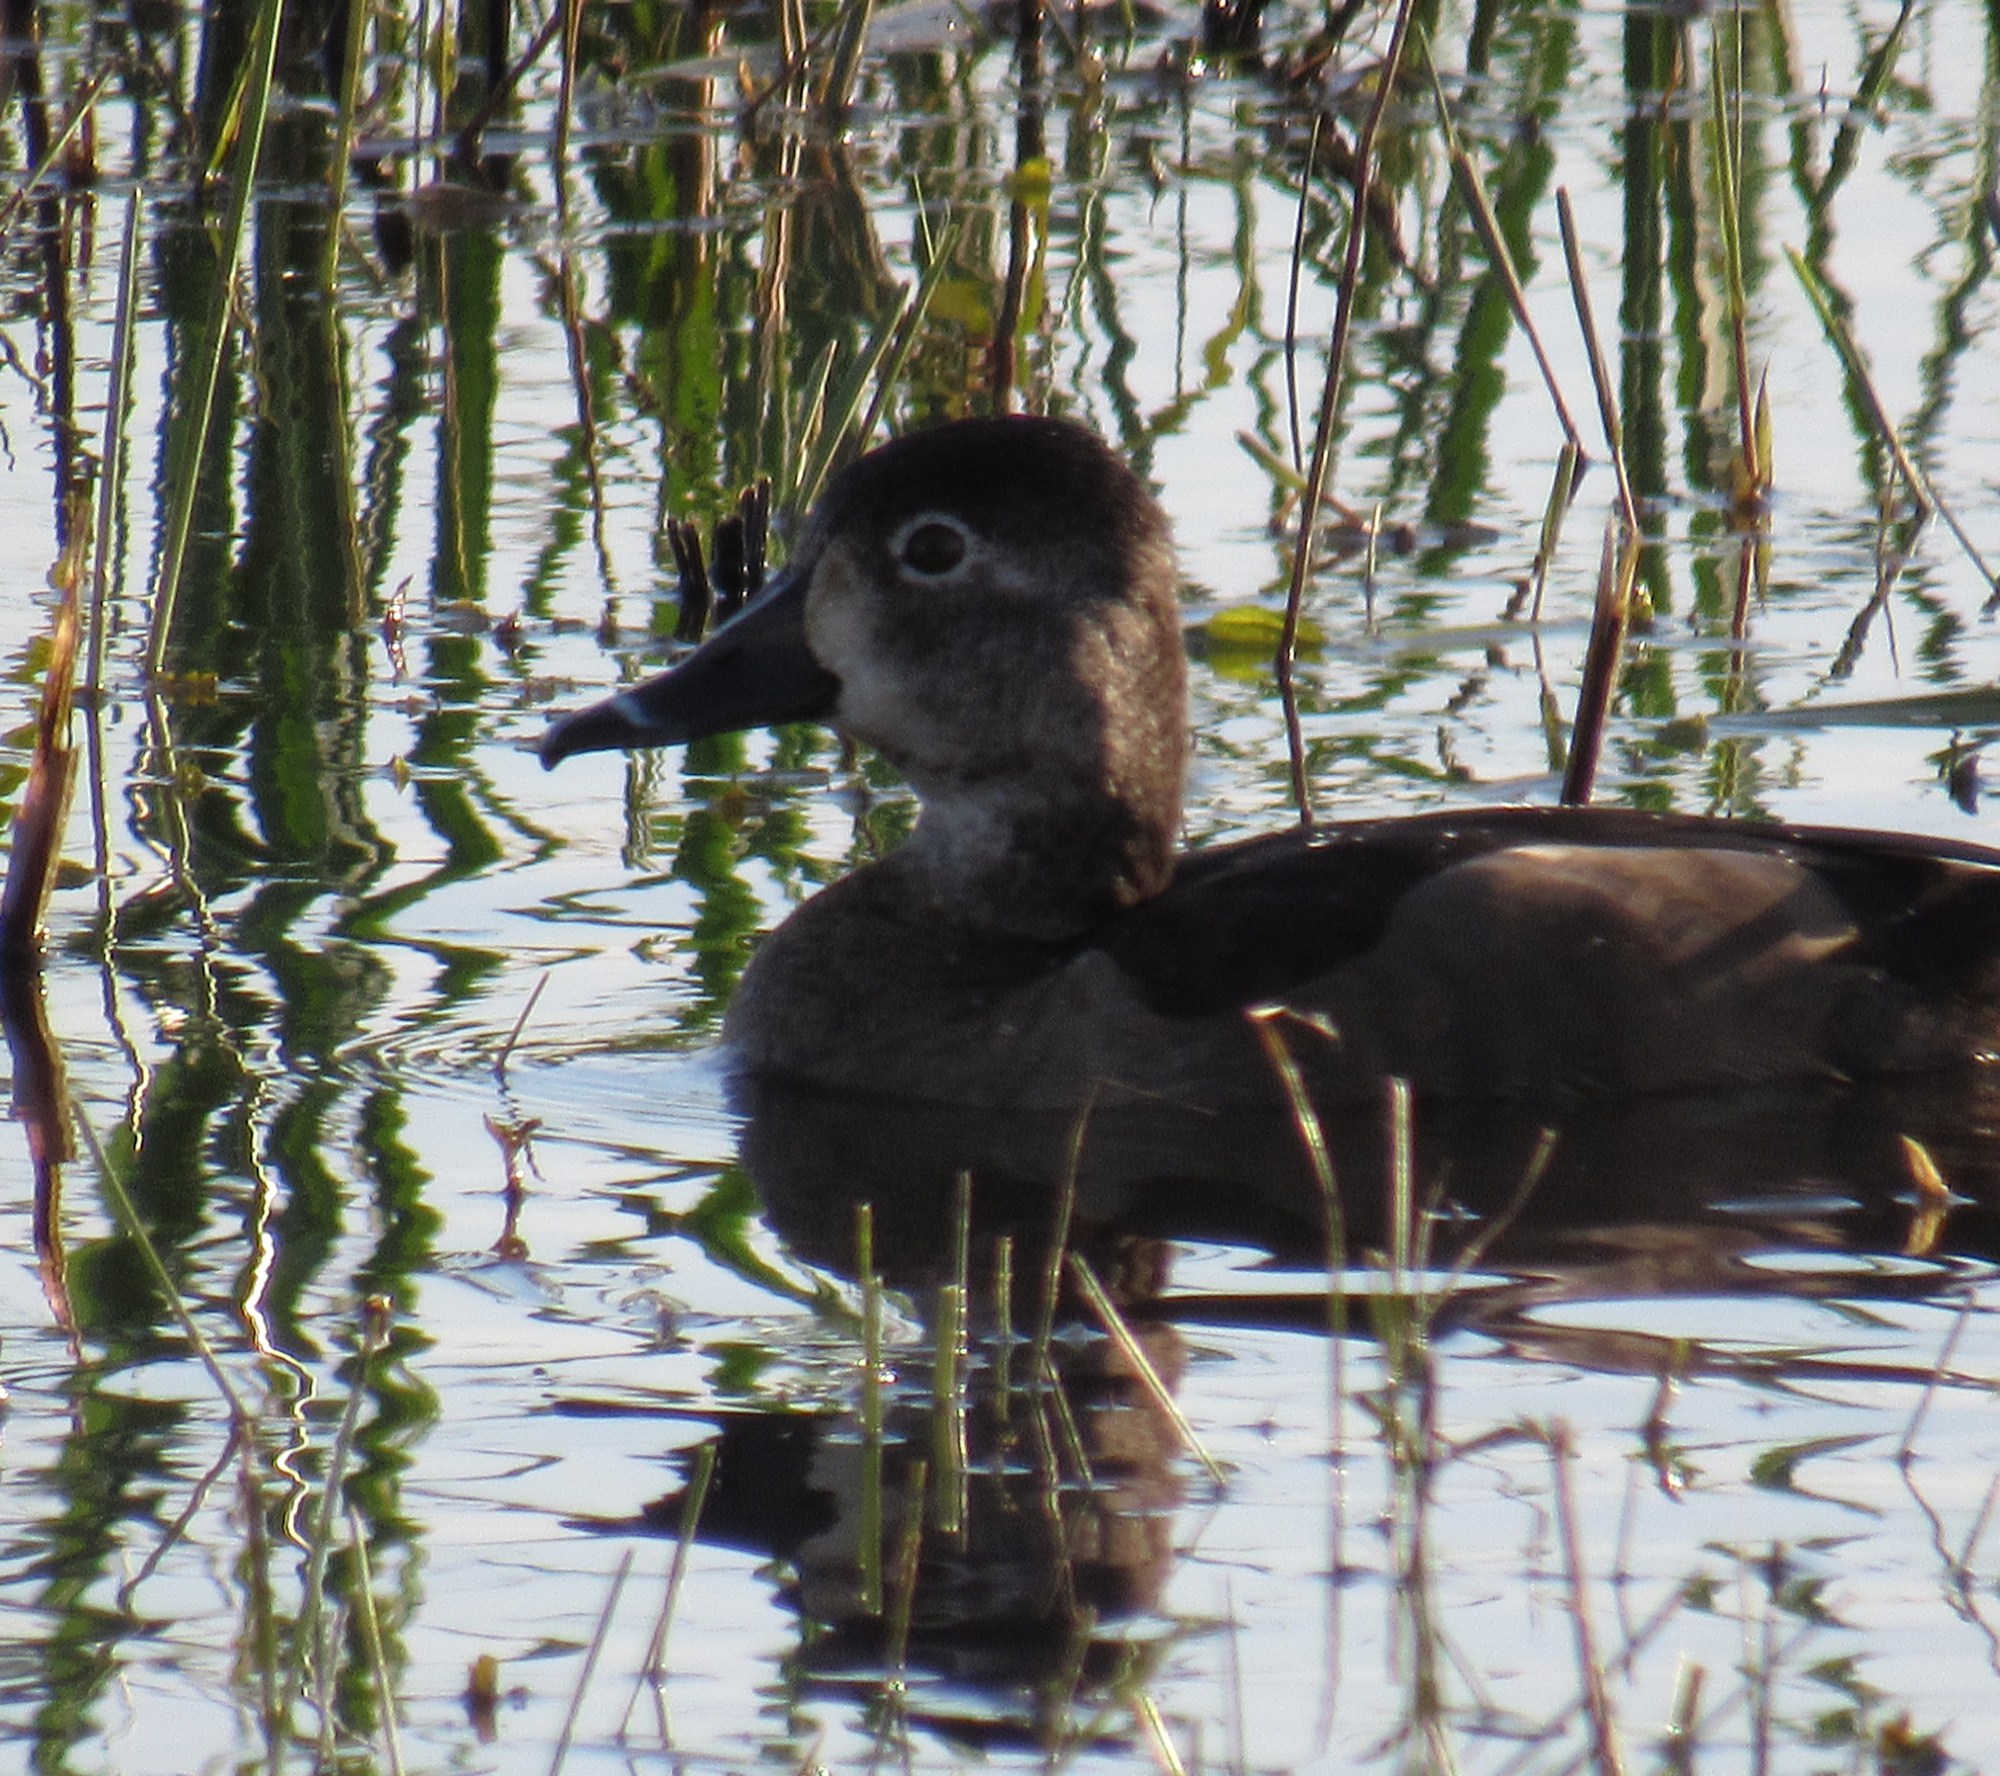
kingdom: Animalia
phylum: Chordata
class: Aves
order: Anseriformes
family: Anatidae
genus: Aythya
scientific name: Aythya collaris
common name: Ring-necked duck
